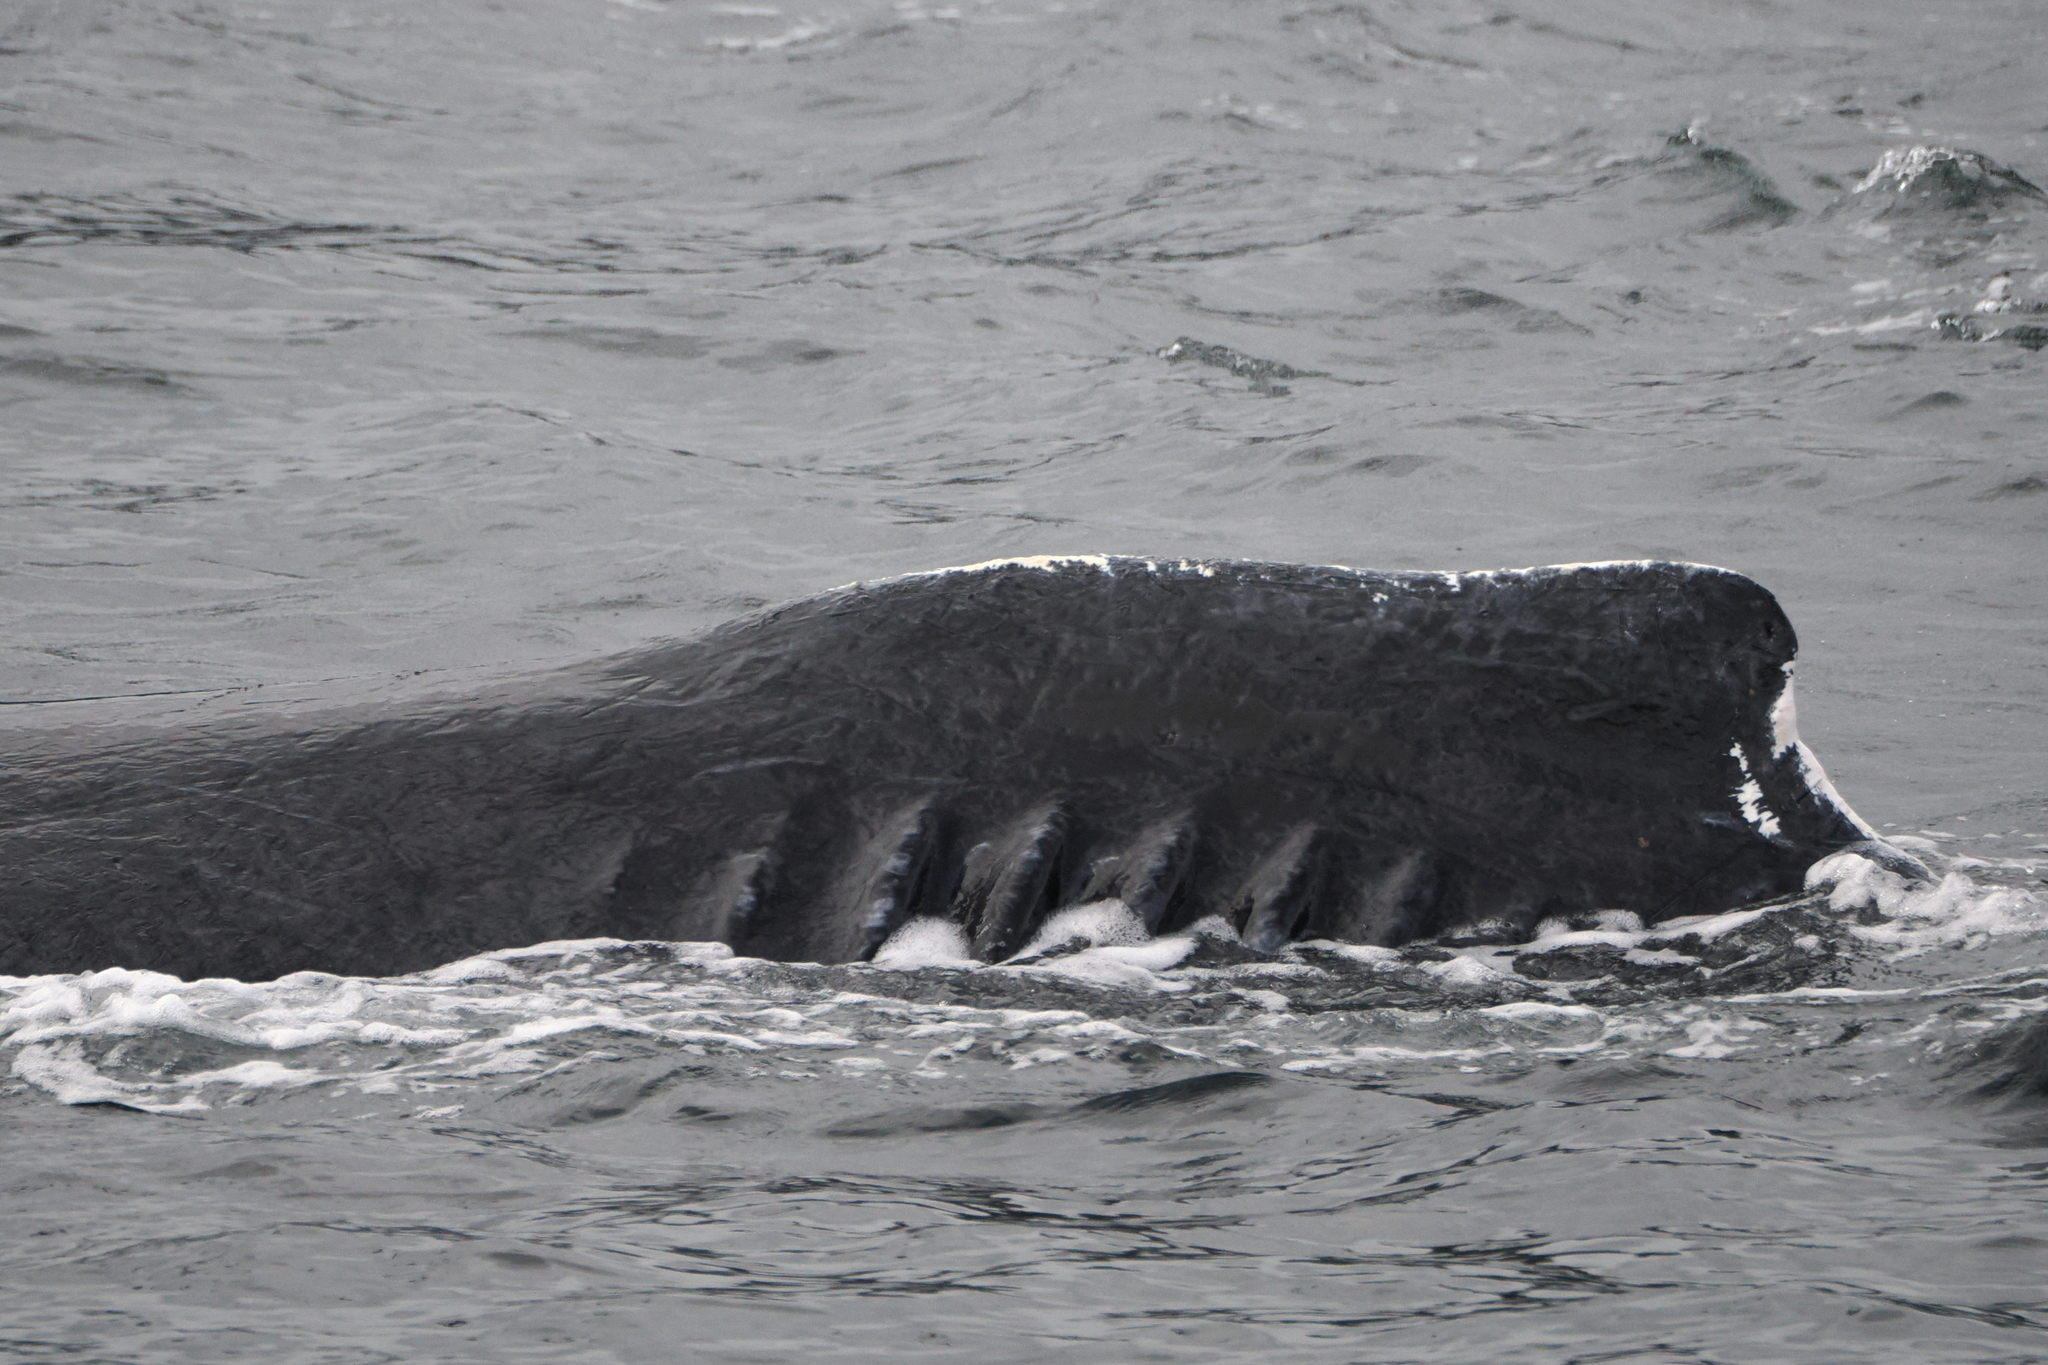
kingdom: Animalia
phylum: Chordata
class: Mammalia
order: Cetacea
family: Balaenopteridae
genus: Megaptera
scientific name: Megaptera novaeangliae
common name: Humpback whale
